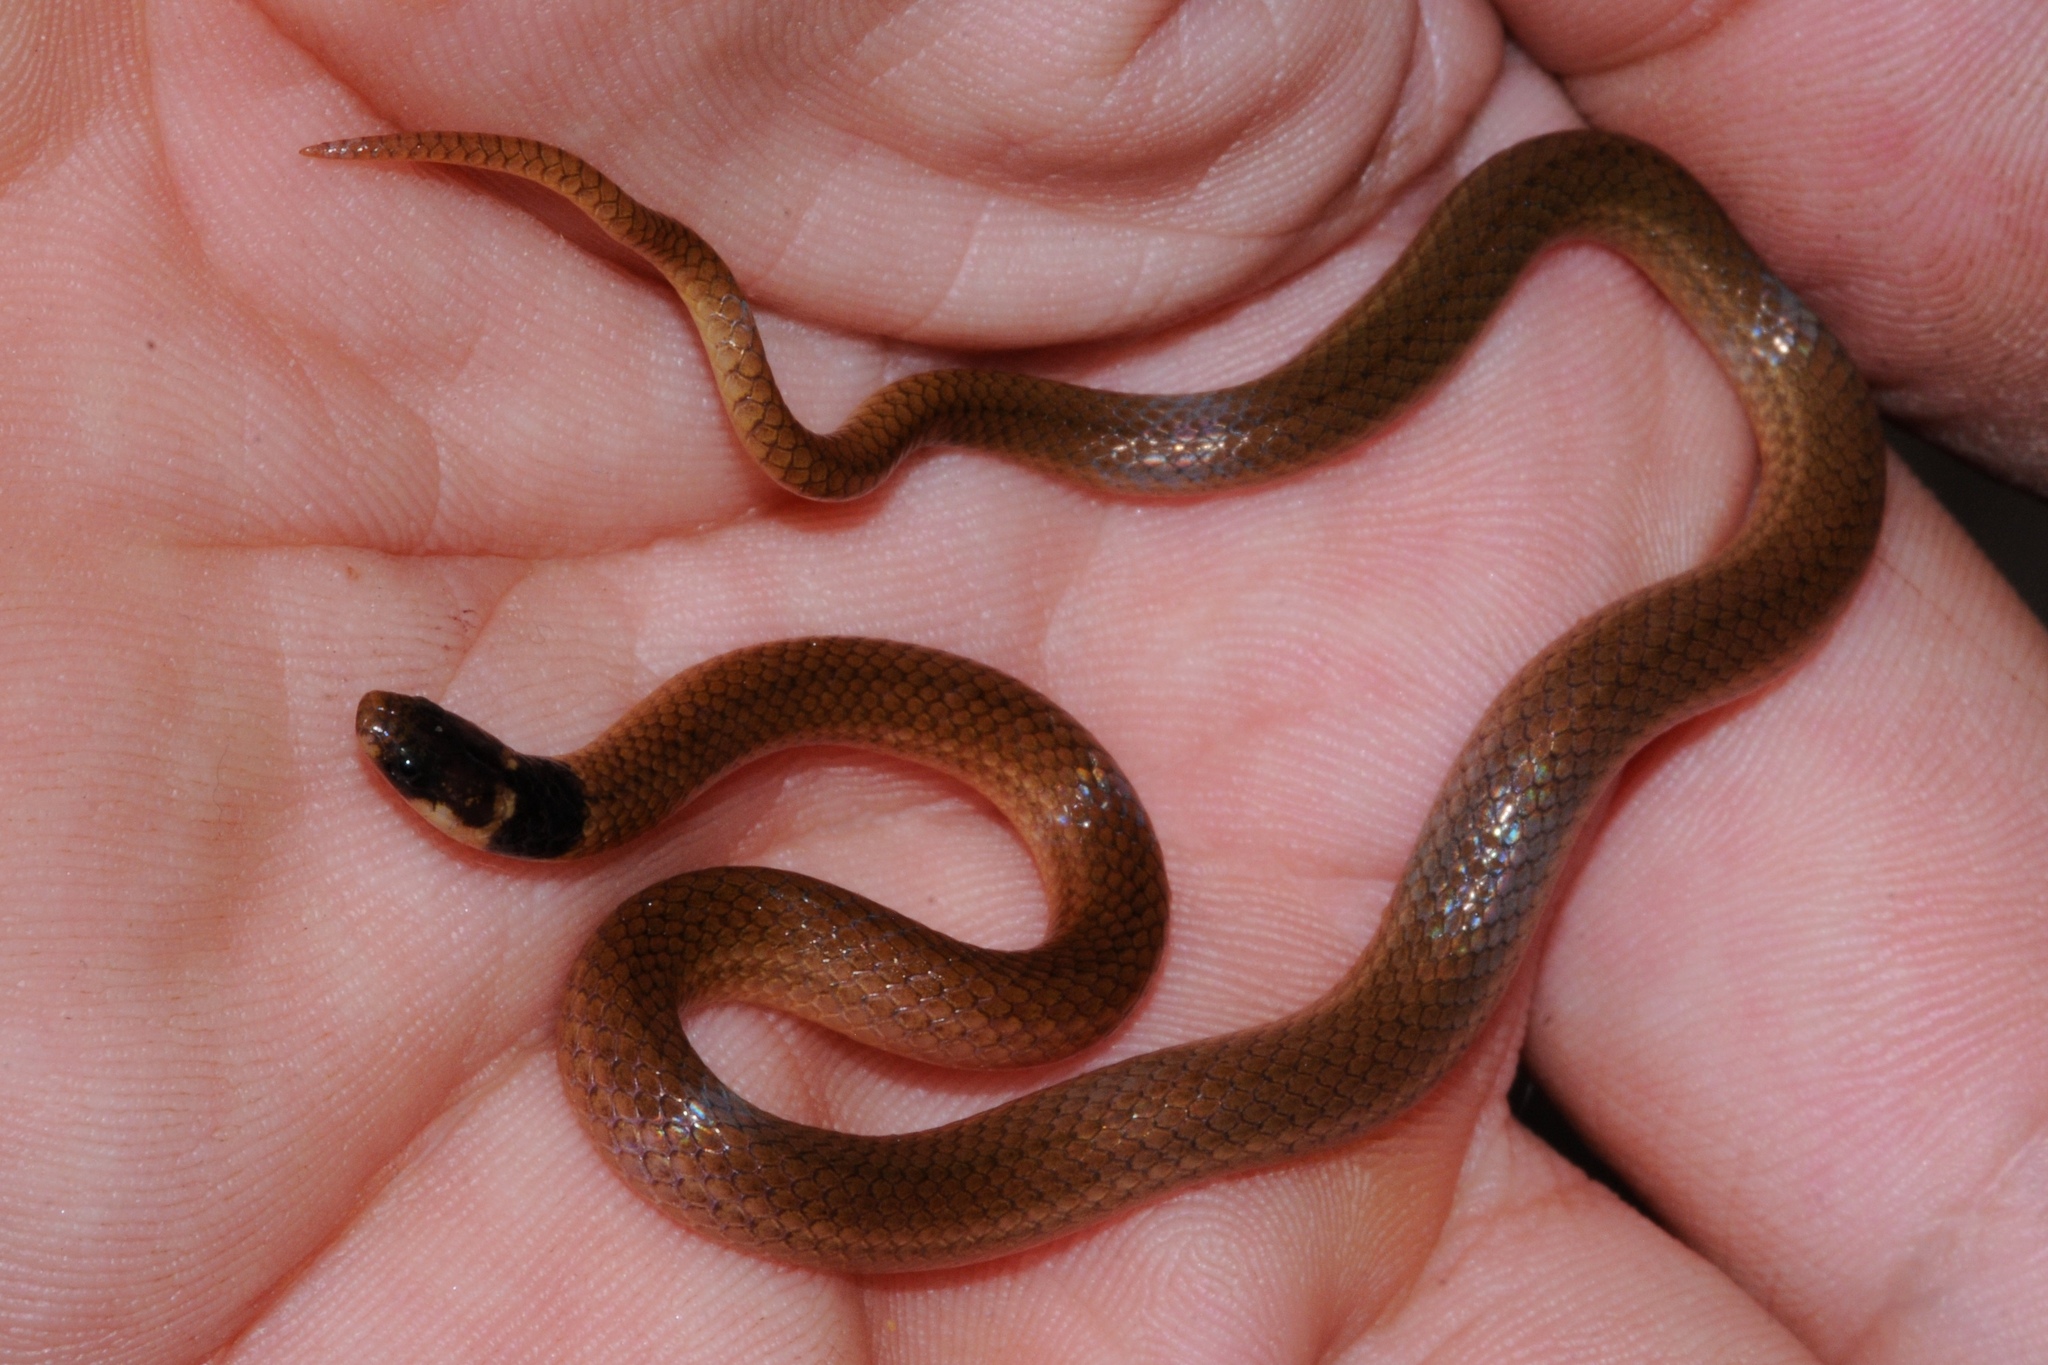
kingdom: Animalia
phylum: Chordata
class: Squamata
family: Atractaspididae
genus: Aparallactus
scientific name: Aparallactus capensis
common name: Cape centipede eater
